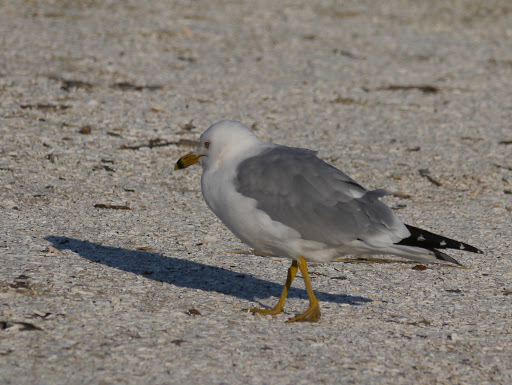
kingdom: Animalia
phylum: Chordata
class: Aves
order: Charadriiformes
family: Laridae
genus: Larus
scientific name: Larus delawarensis
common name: Ring-billed gull
